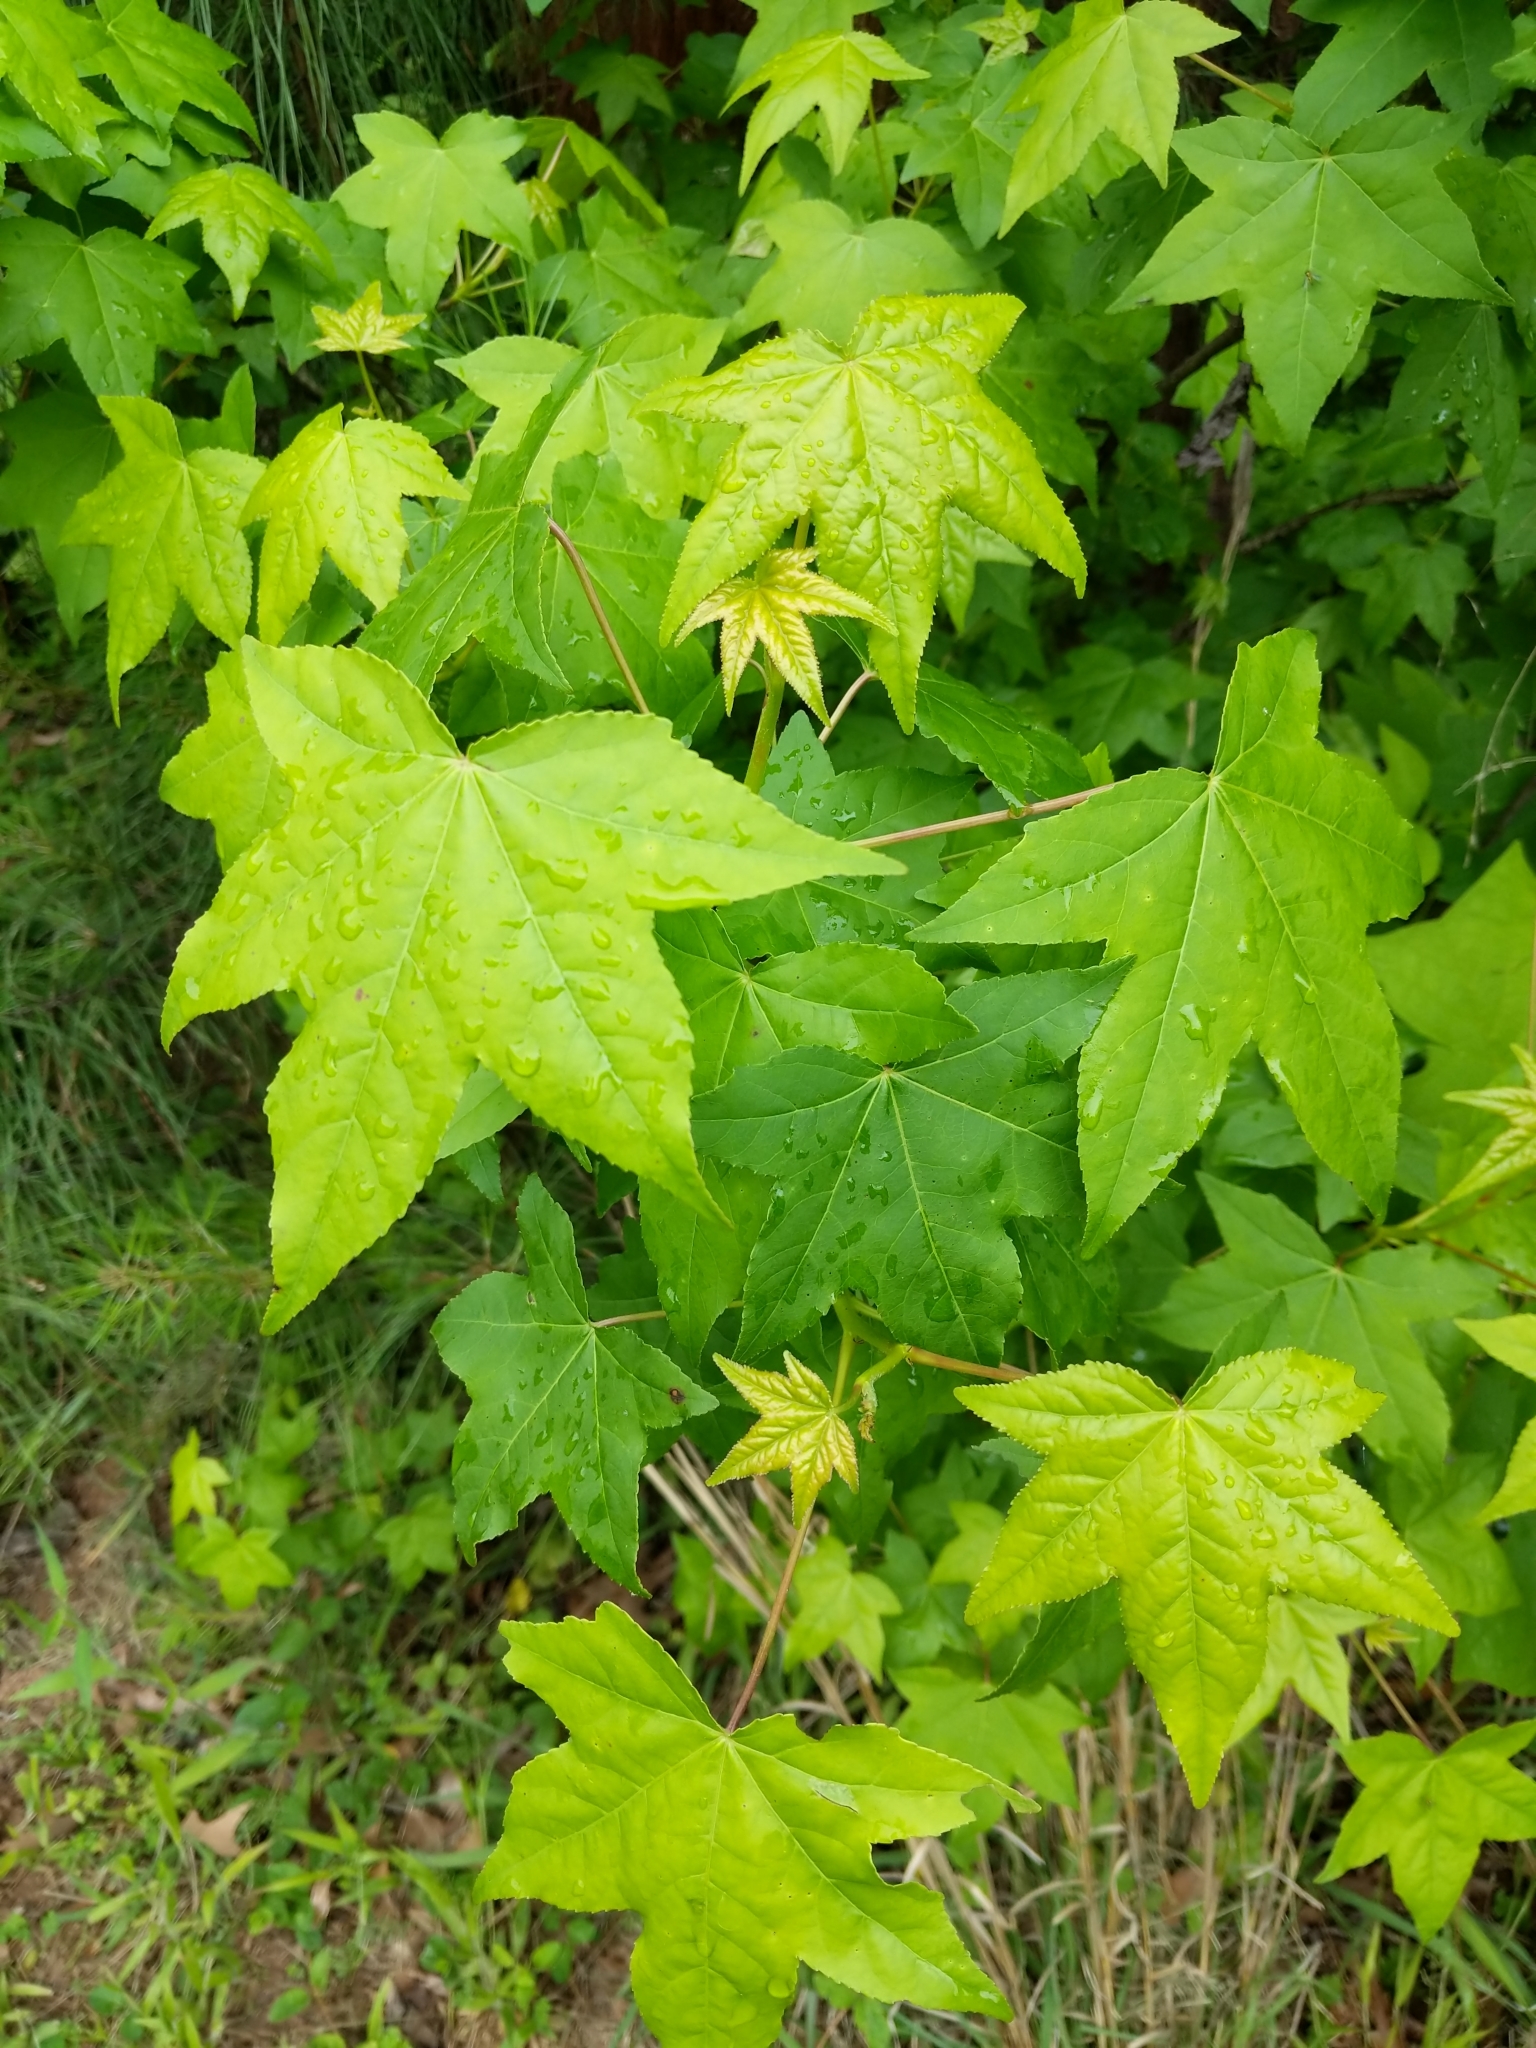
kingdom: Plantae
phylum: Tracheophyta
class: Magnoliopsida
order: Saxifragales
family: Altingiaceae
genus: Liquidambar
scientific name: Liquidambar styraciflua
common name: Sweet gum
